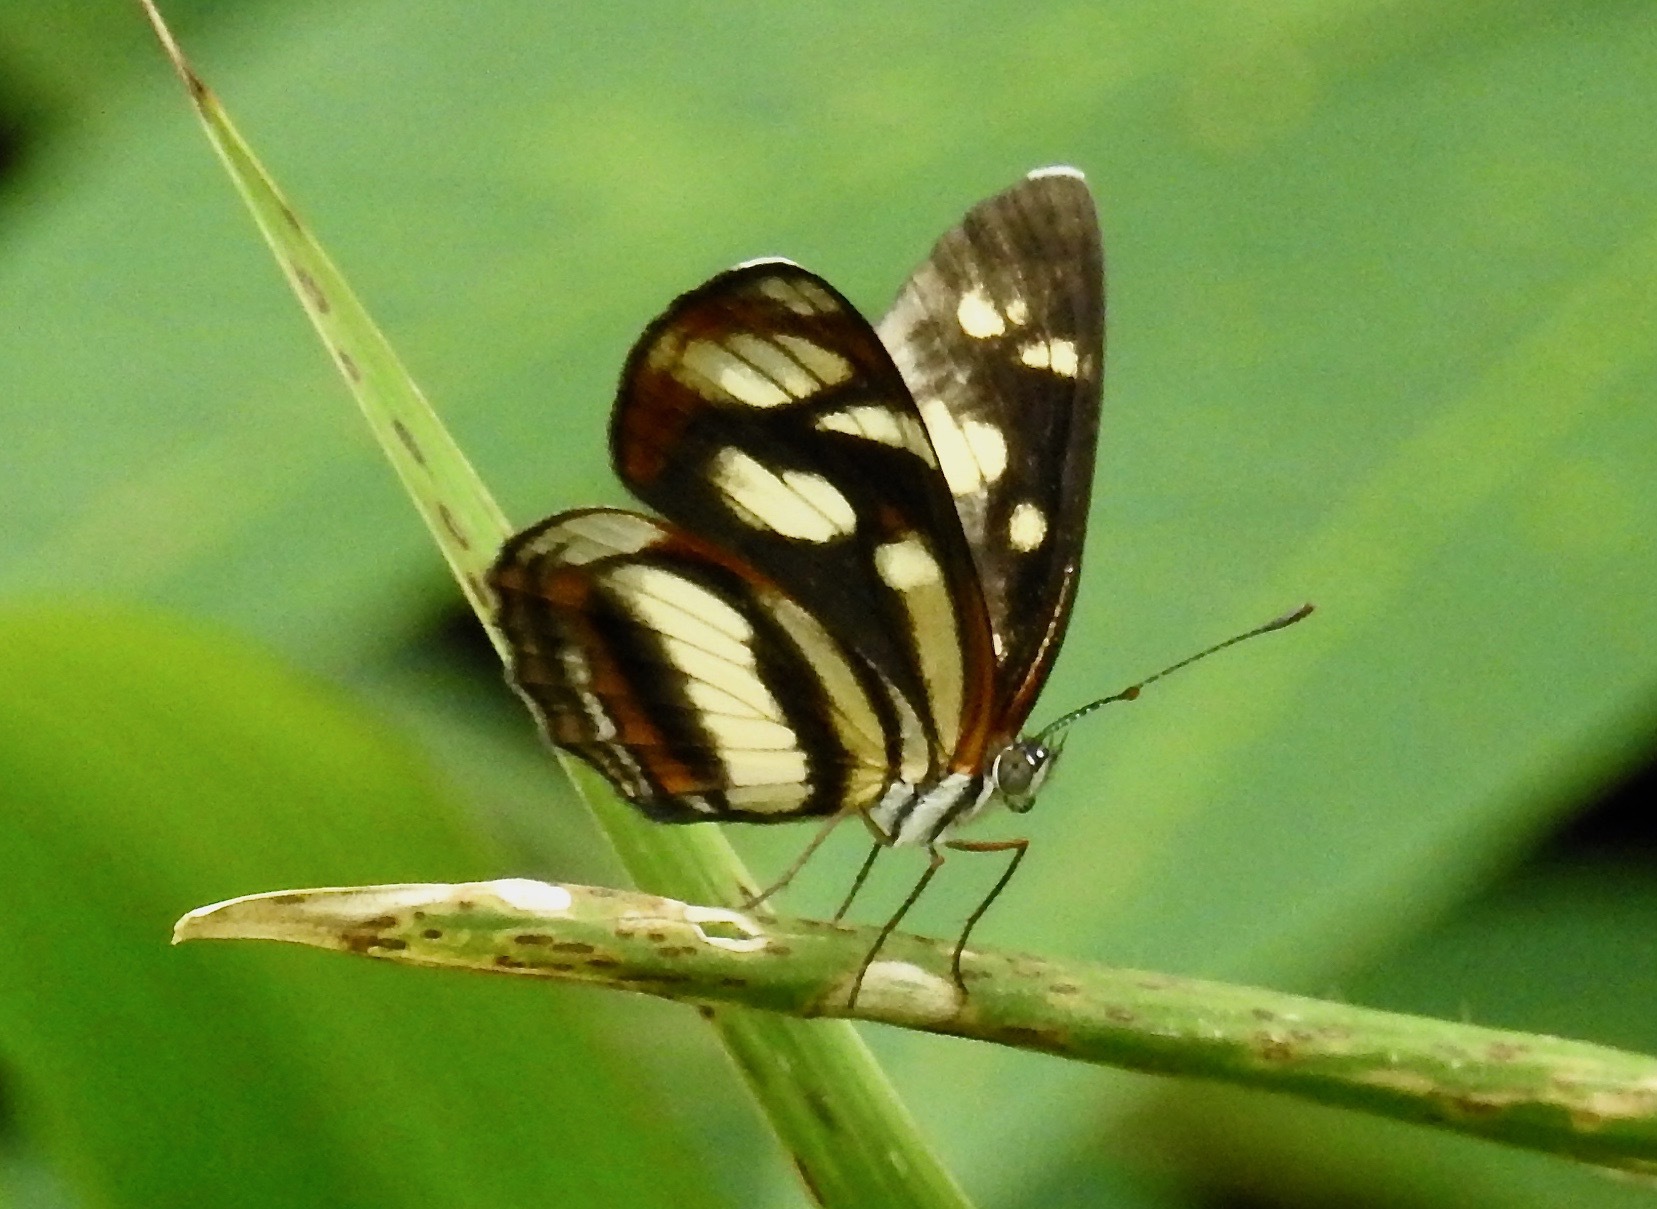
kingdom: Animalia
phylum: Arthropoda
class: Insecta
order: Lepidoptera
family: Nymphalidae
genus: Eresia
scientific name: Eresia clio
